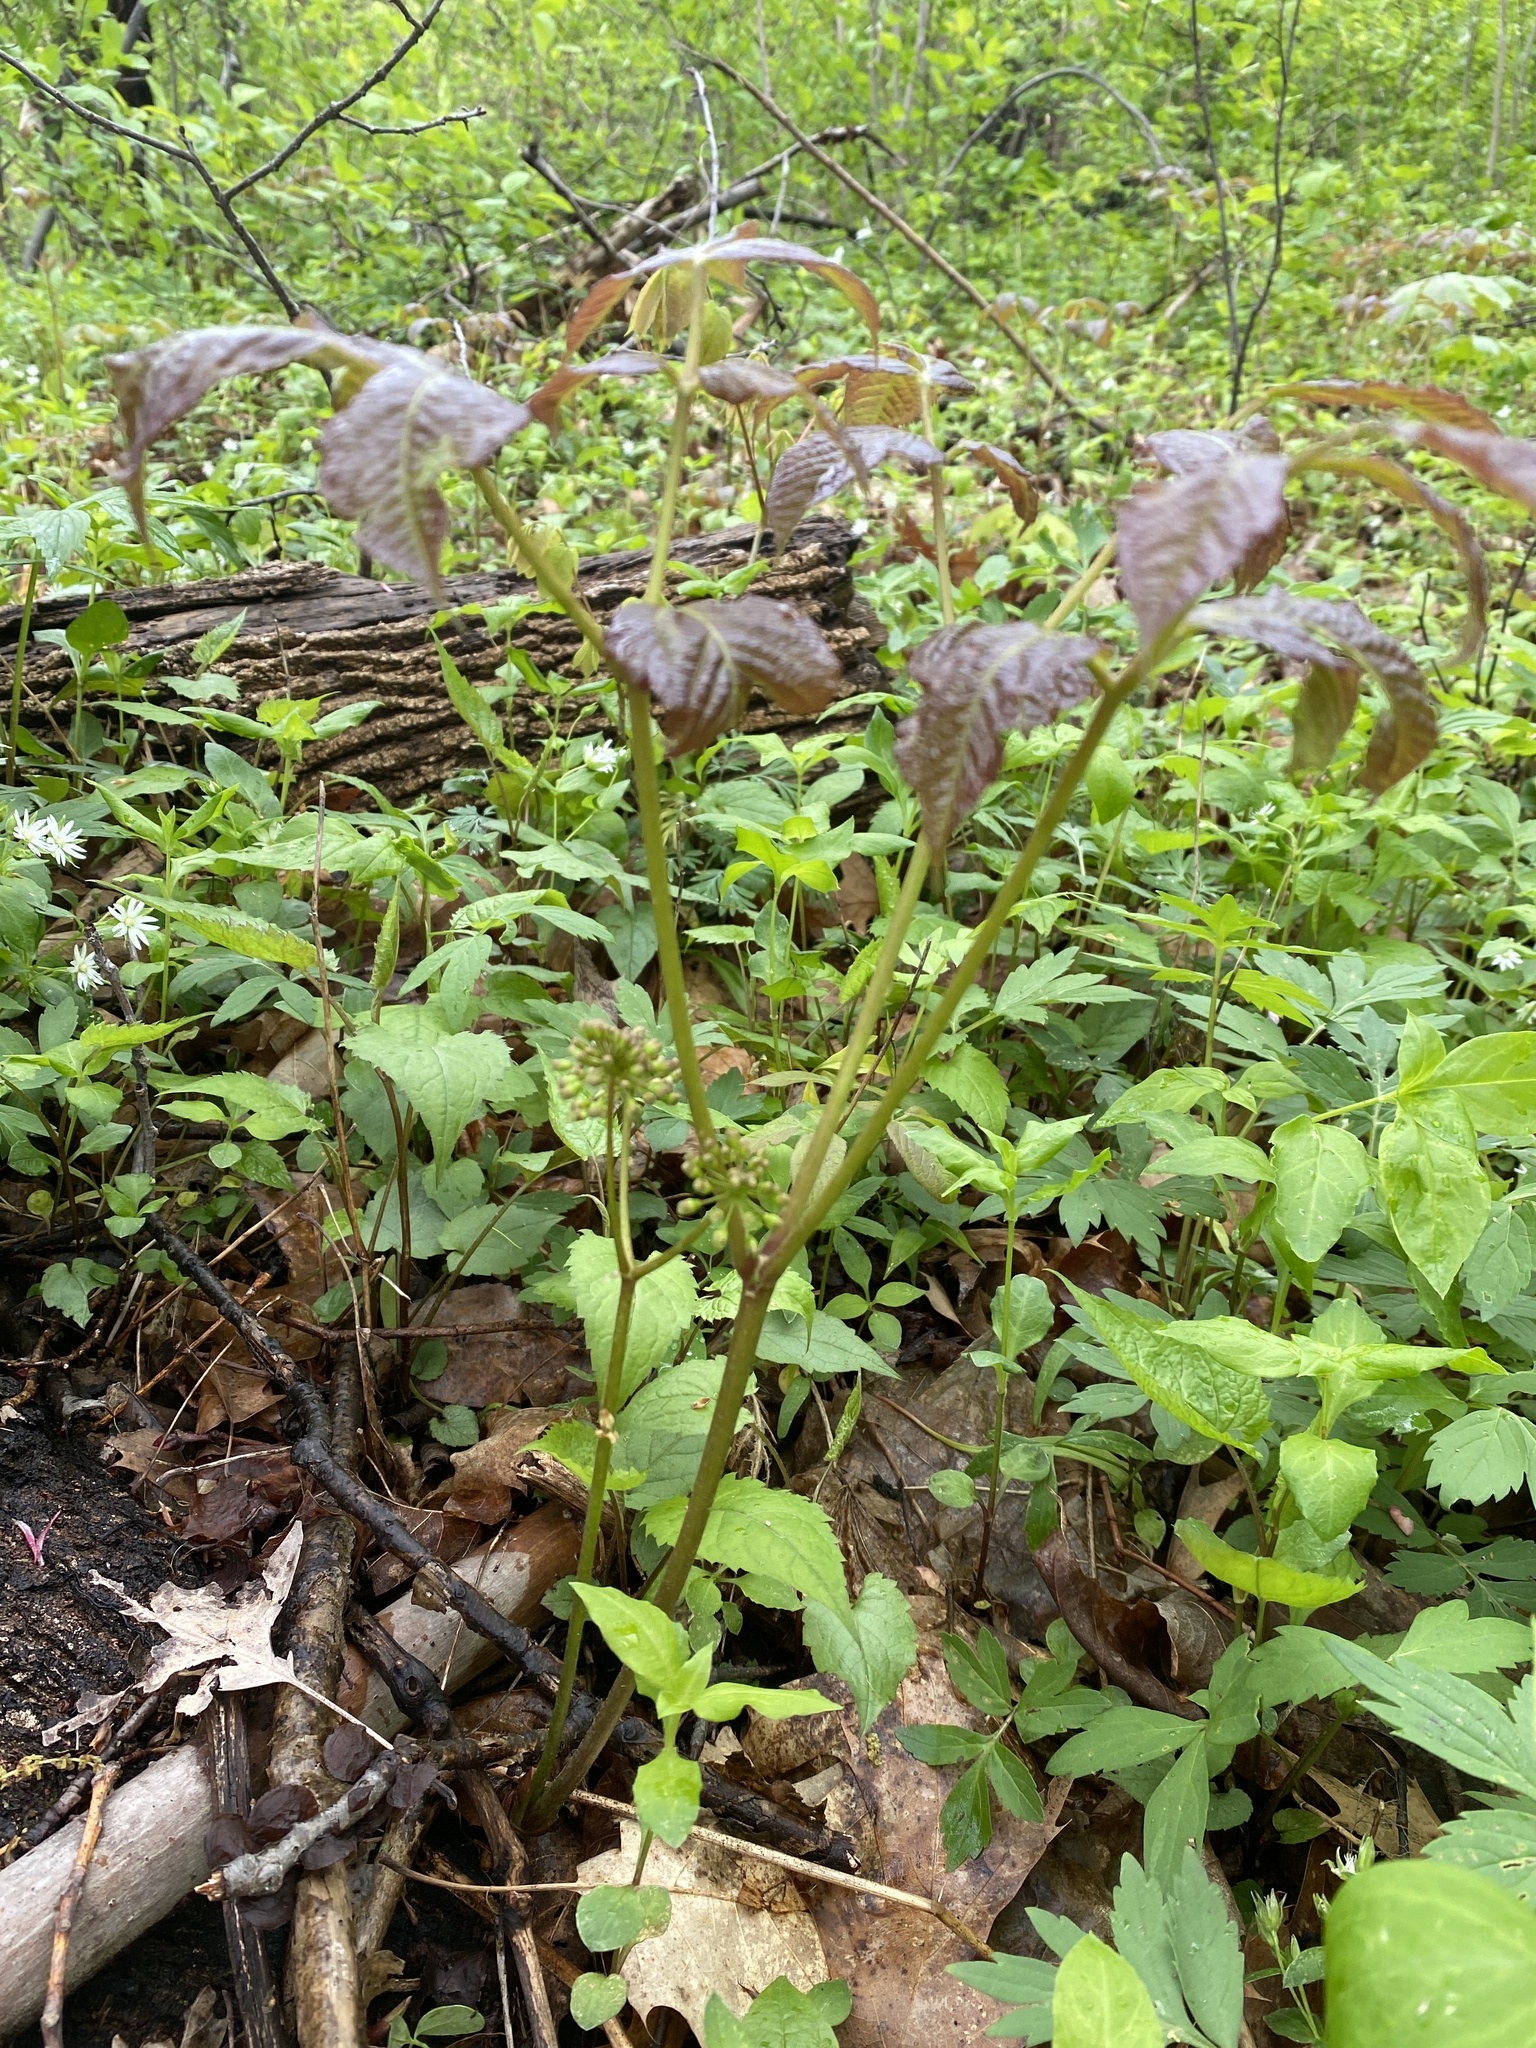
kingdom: Plantae
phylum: Tracheophyta
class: Magnoliopsida
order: Apiales
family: Araliaceae
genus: Aralia
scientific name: Aralia nudicaulis
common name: Wild sarsaparilla
